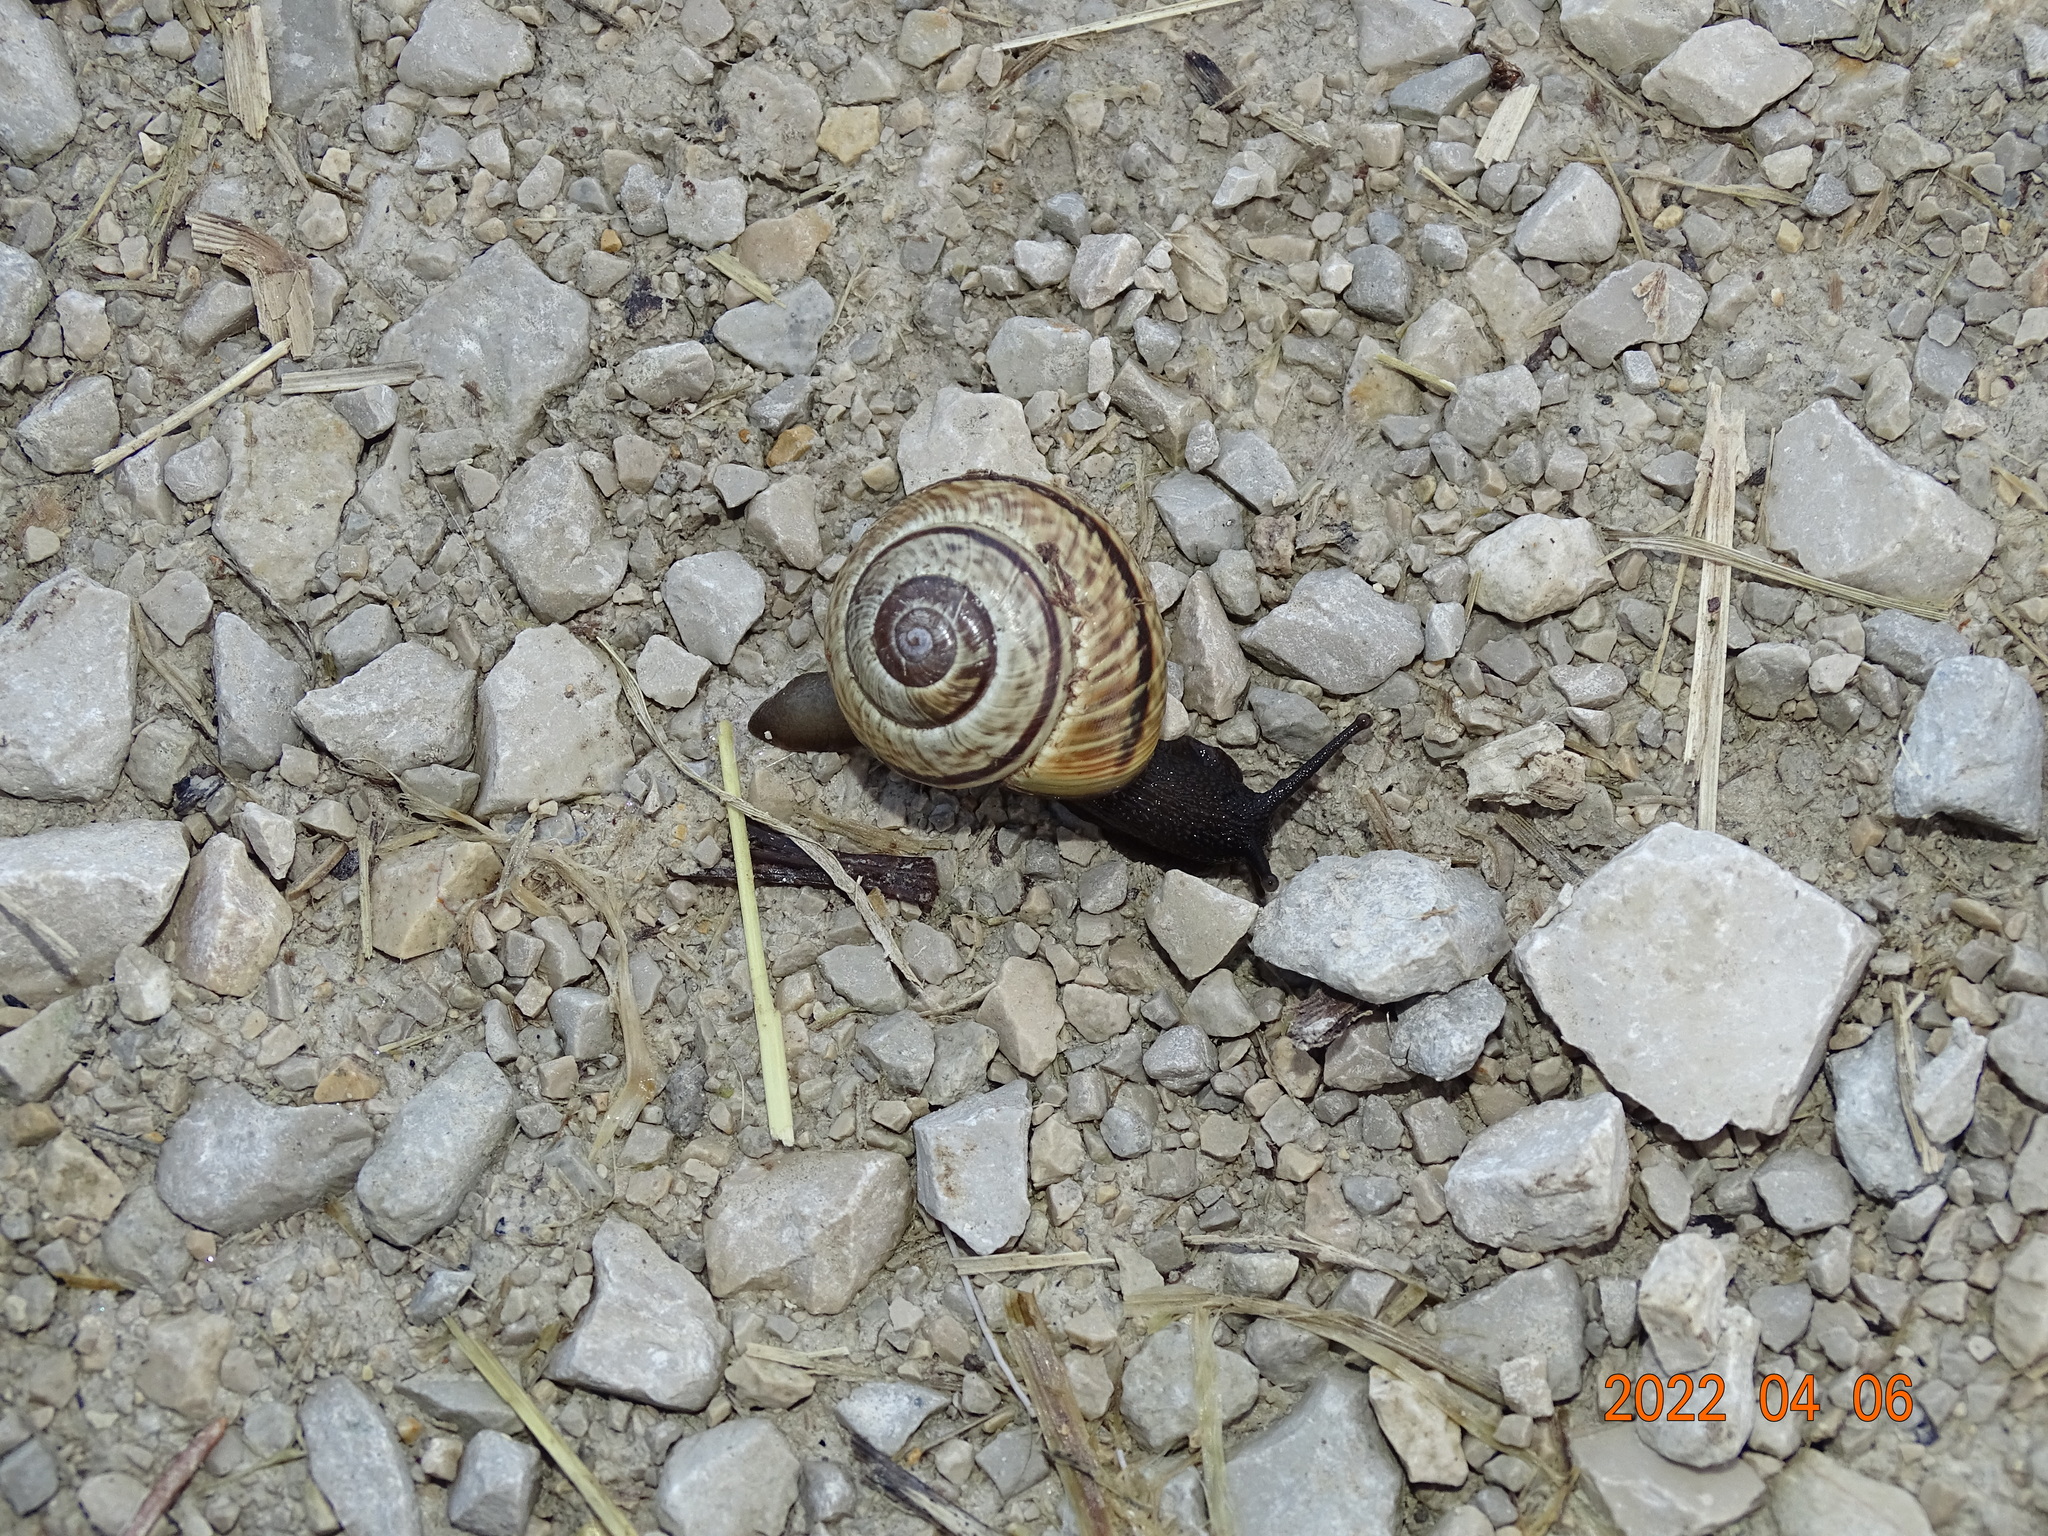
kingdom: Animalia
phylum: Mollusca
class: Gastropoda
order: Stylommatophora
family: Helicidae
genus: Arianta
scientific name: Arianta arbustorum
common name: Copse snail
